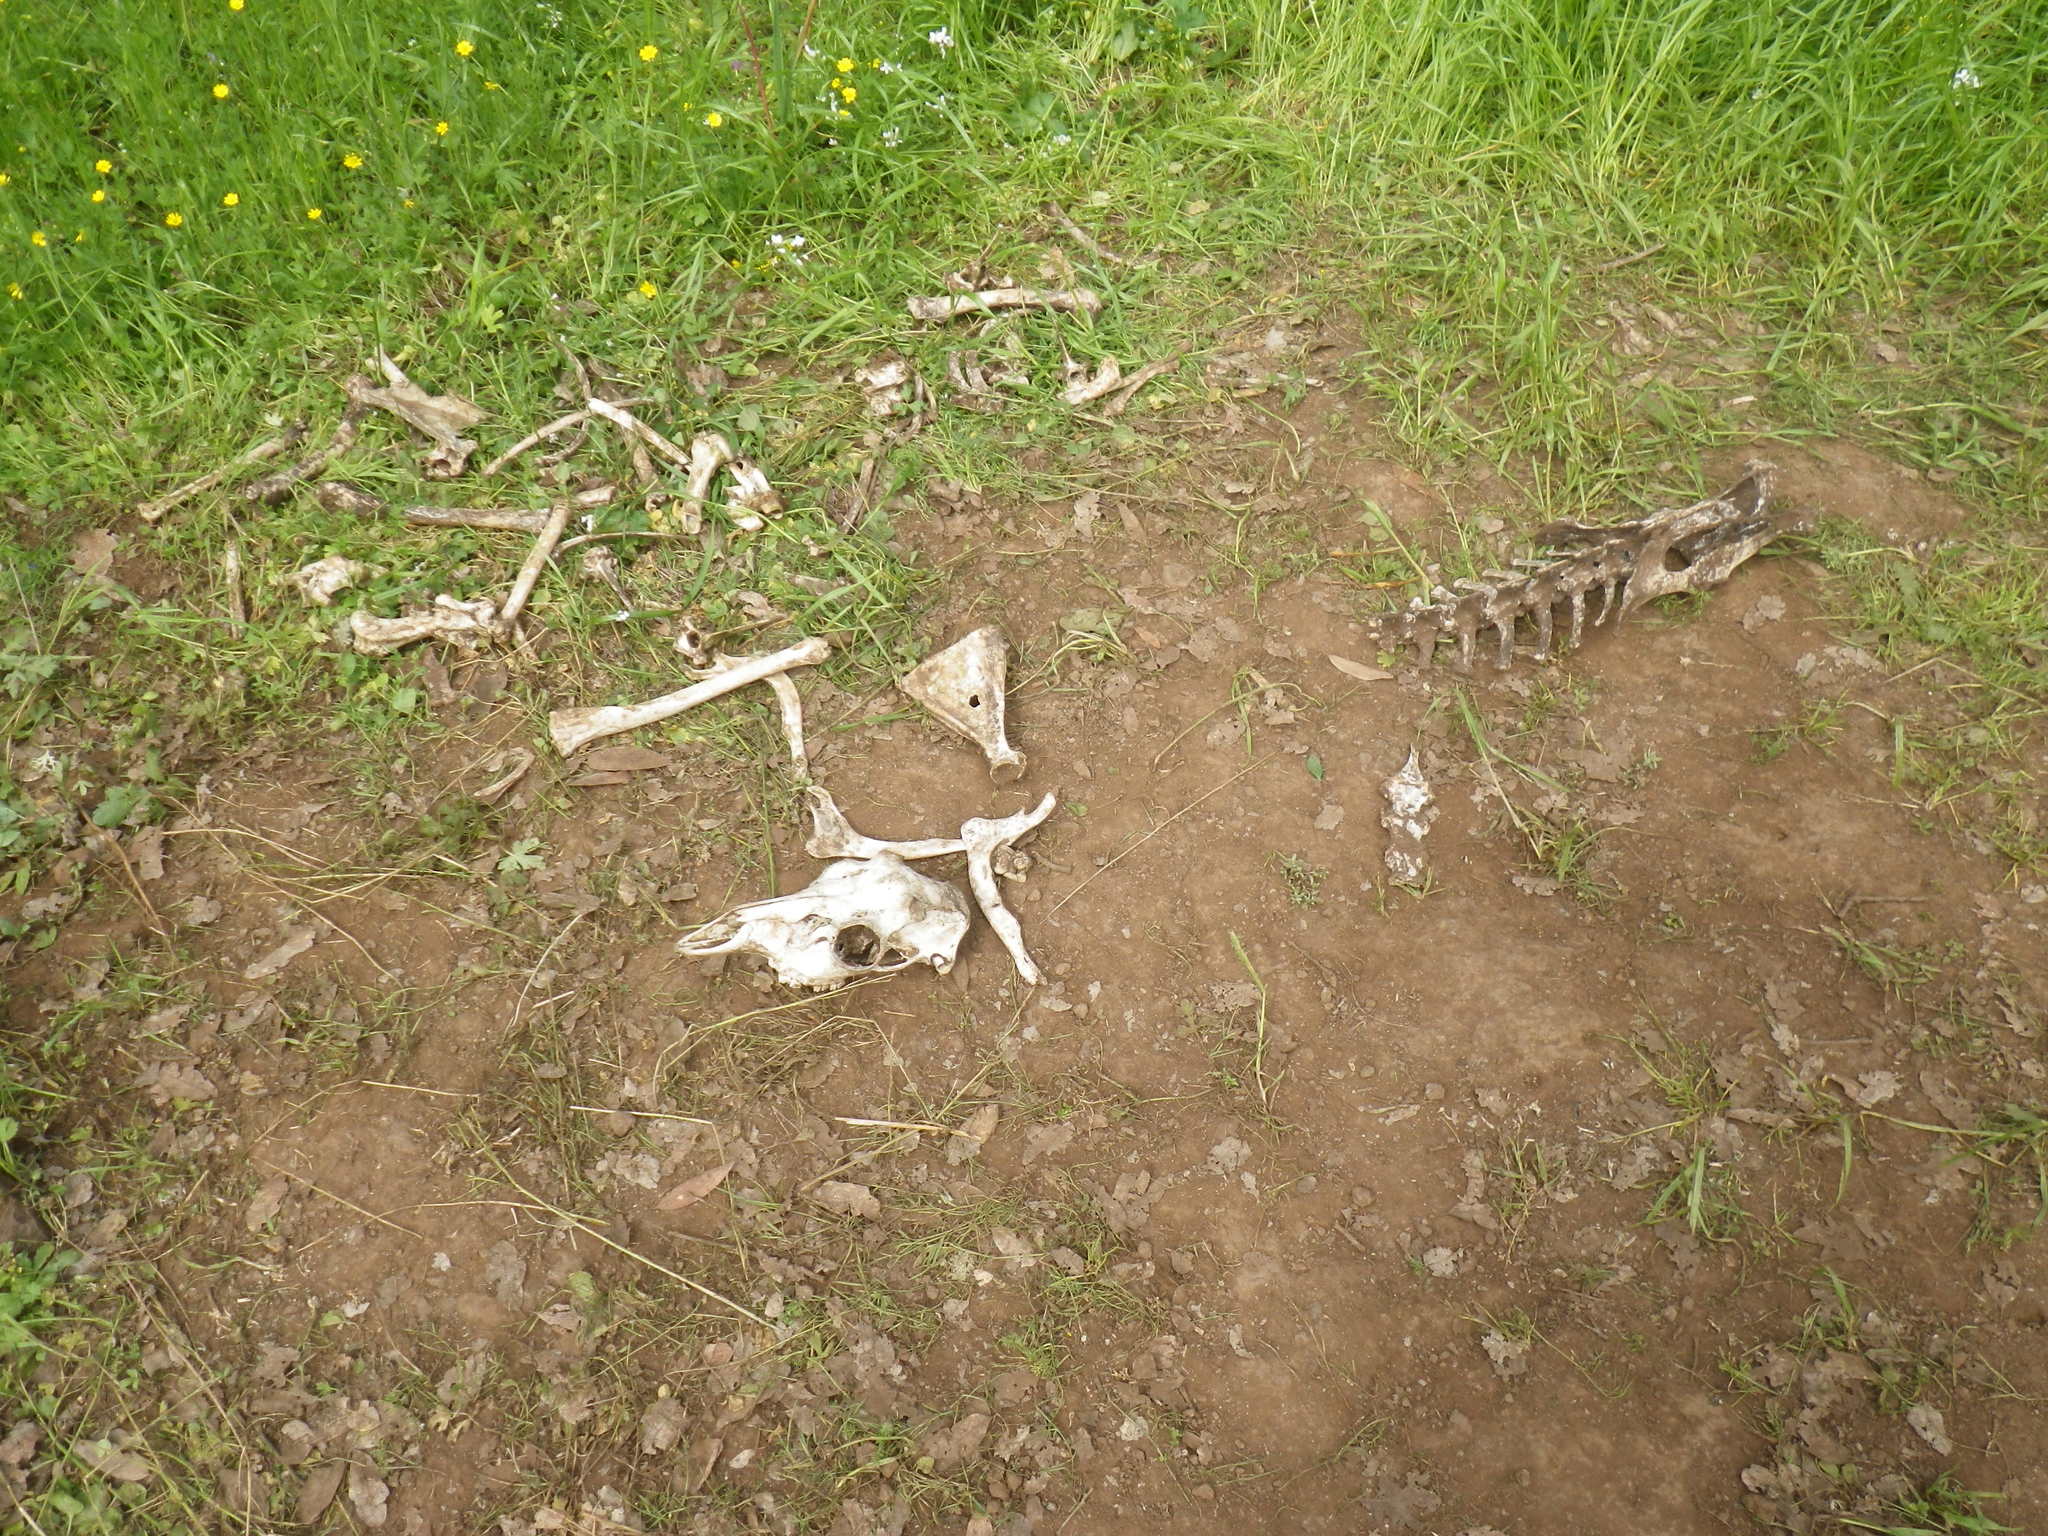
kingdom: Animalia
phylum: Chordata
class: Mammalia
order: Artiodactyla
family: Cervidae
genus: Odocoileus
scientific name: Odocoileus hemionus
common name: Mule deer
